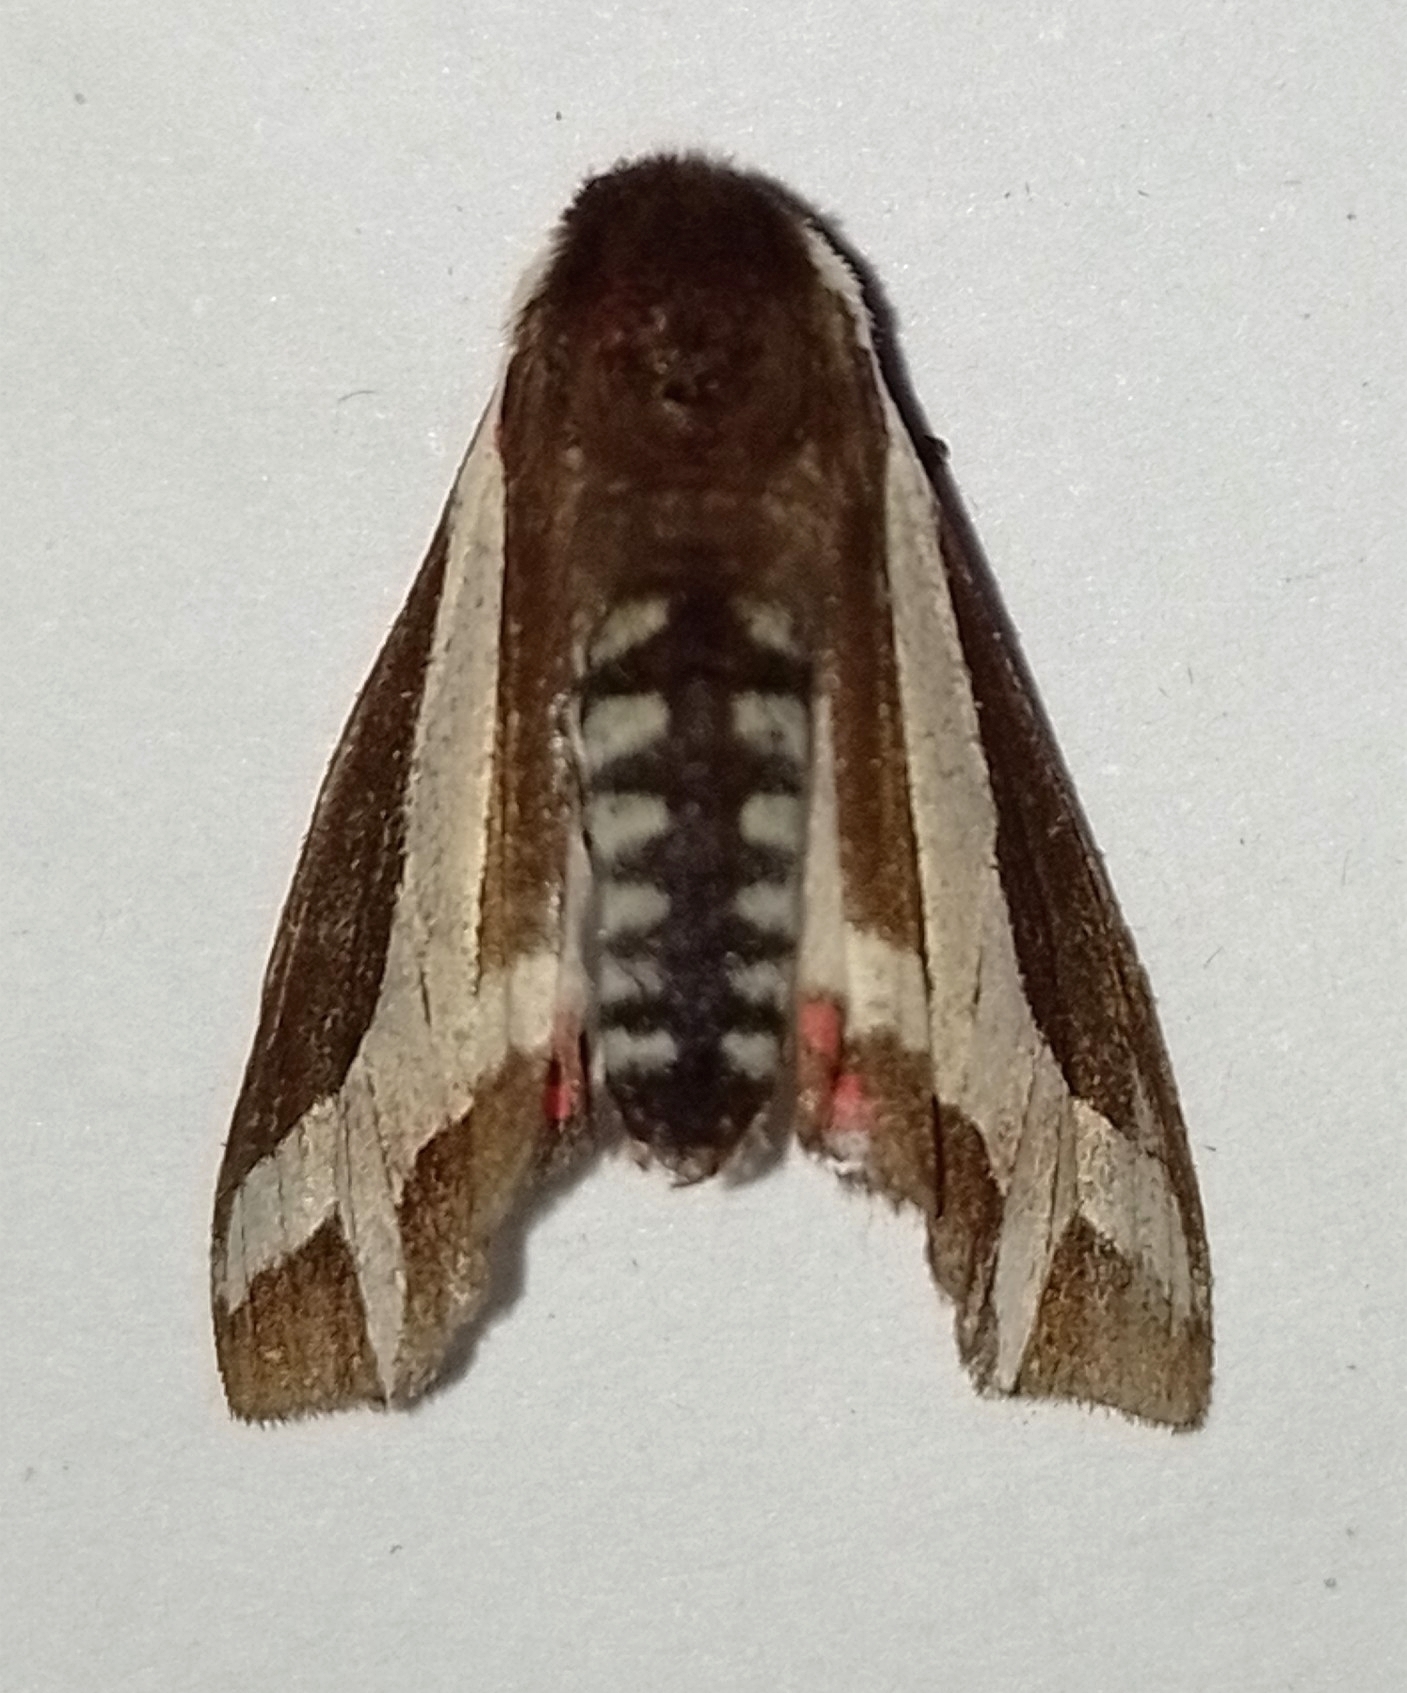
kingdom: Animalia
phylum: Arthropoda
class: Insecta
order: Lepidoptera
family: Erebidae
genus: Dysschema
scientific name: Dysschema sacrifica
